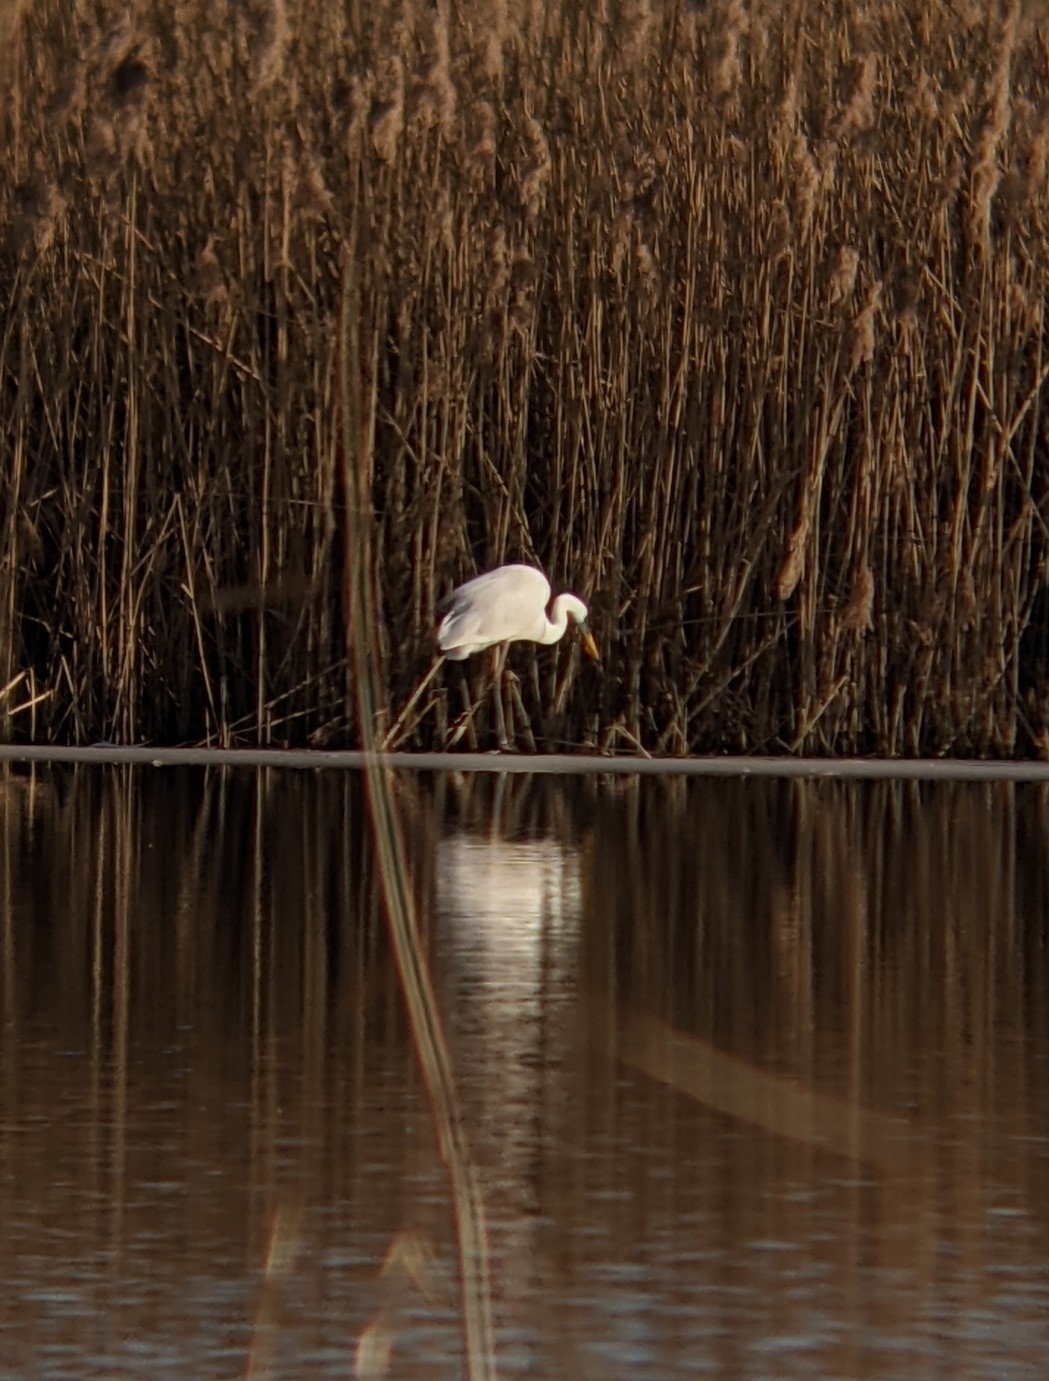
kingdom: Animalia
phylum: Chordata
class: Aves
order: Pelecaniformes
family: Ardeidae
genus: Ardea
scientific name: Ardea alba
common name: Great egret
